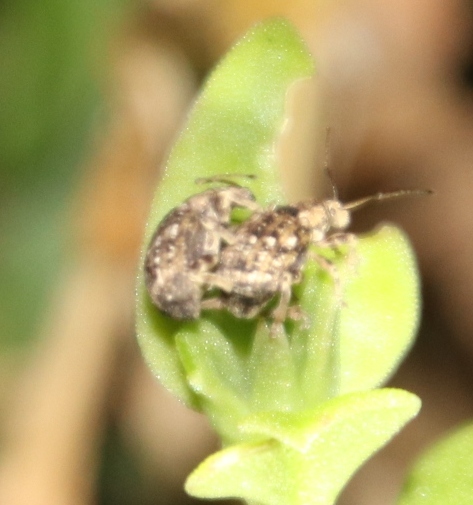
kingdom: Animalia
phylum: Arthropoda
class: Insecta
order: Coleoptera
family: Curculionidae
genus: Ellimenistes
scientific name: Ellimenistes laesicollis
